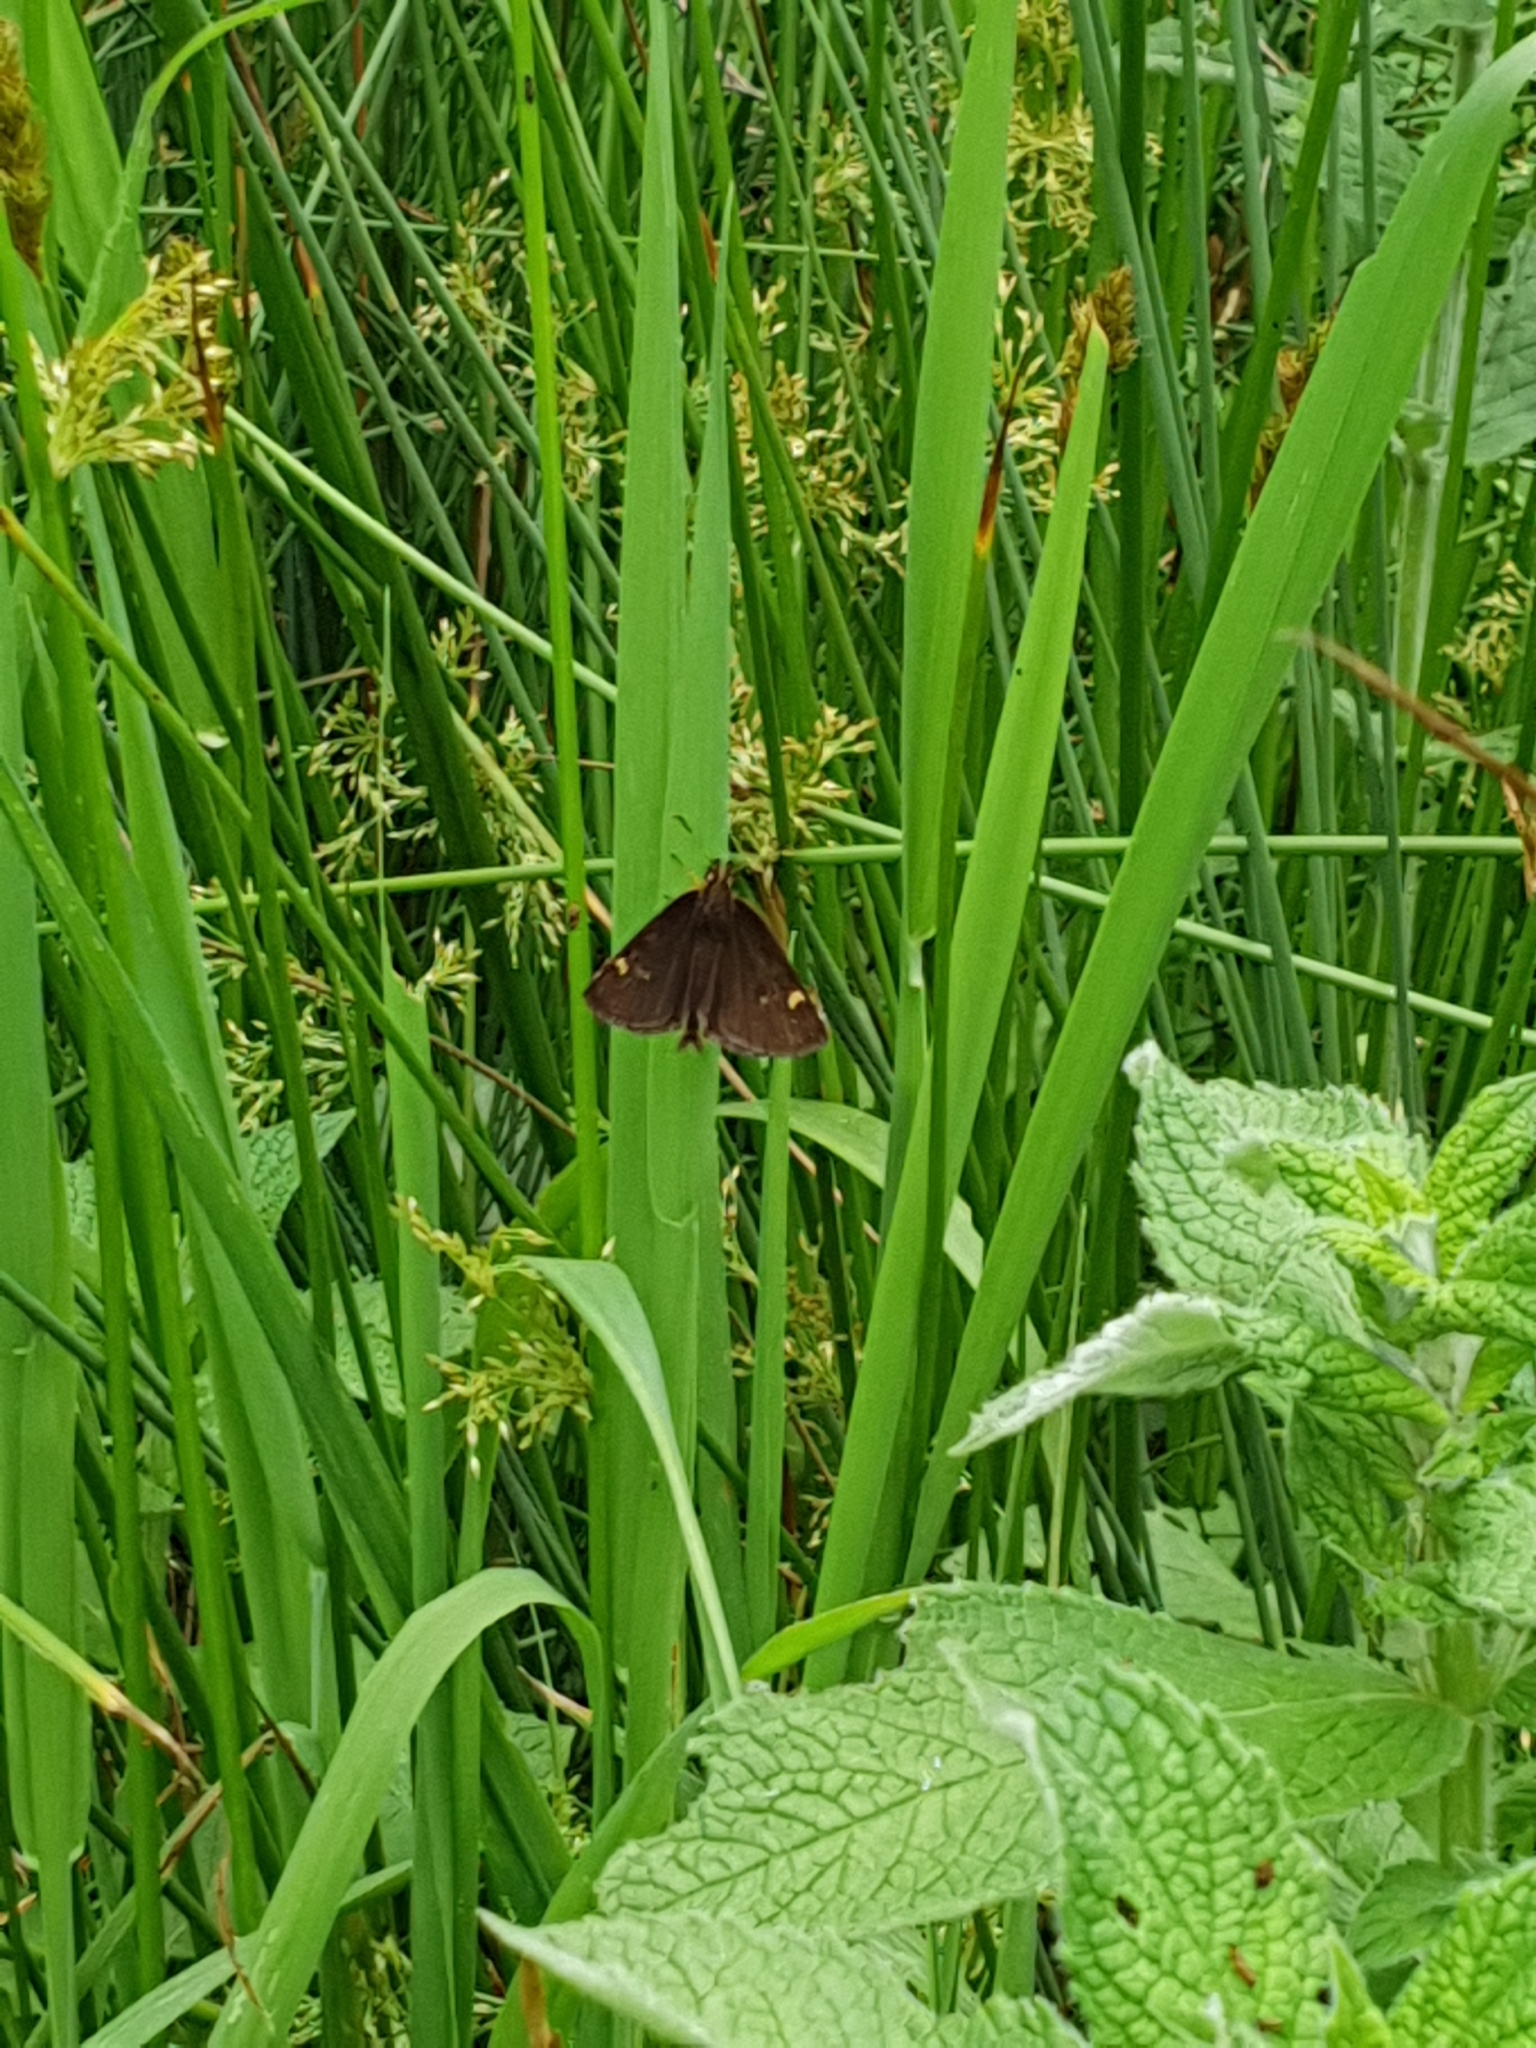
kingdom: Animalia
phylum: Arthropoda
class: Insecta
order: Lepidoptera
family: Hesperiidae
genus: Heteropterus
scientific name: Heteropterus morpheus
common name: Large chequered skipper
